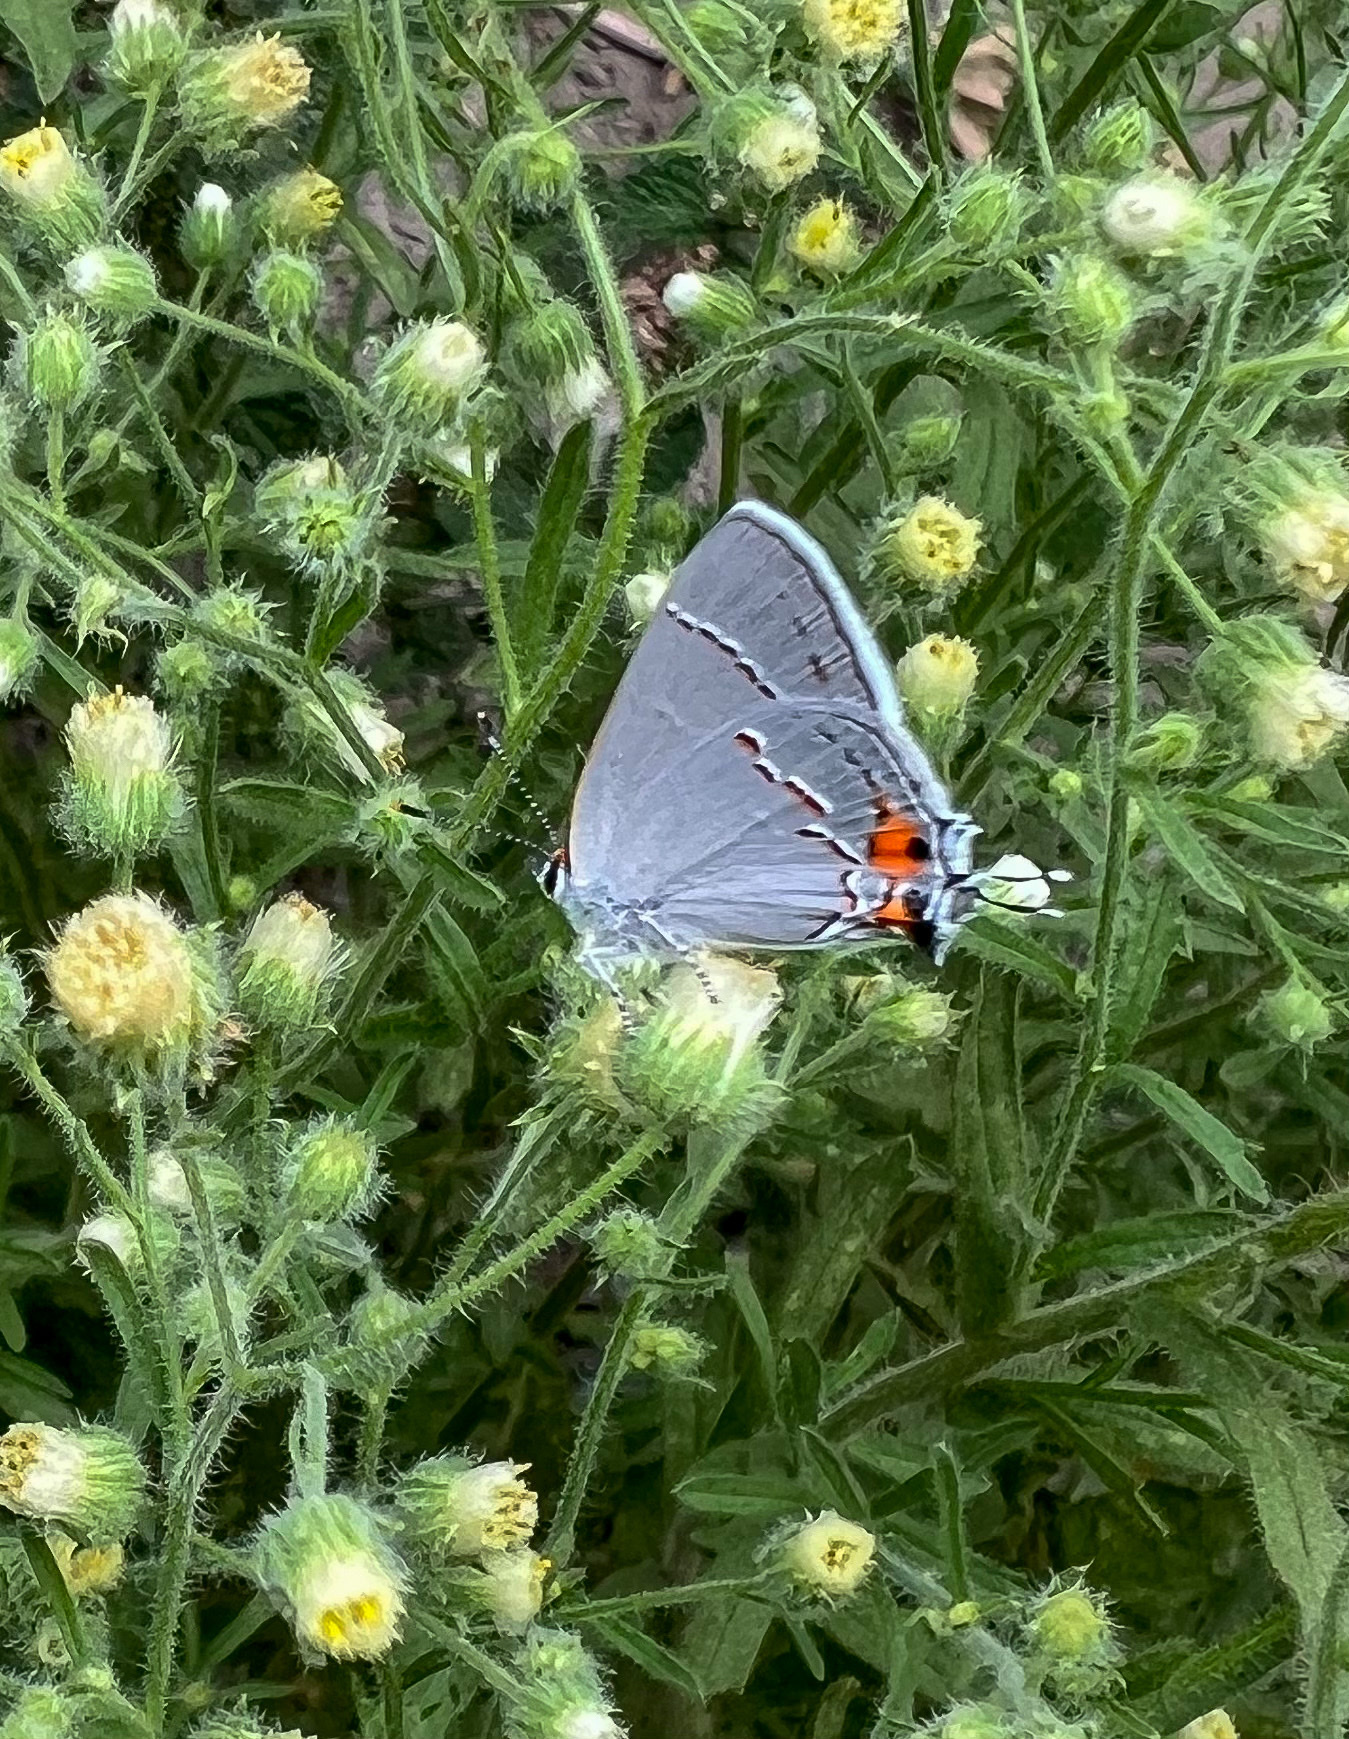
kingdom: Animalia
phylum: Arthropoda
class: Insecta
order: Lepidoptera
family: Lycaenidae
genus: Strymon
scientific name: Strymon melinus
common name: Gray hairstreak
